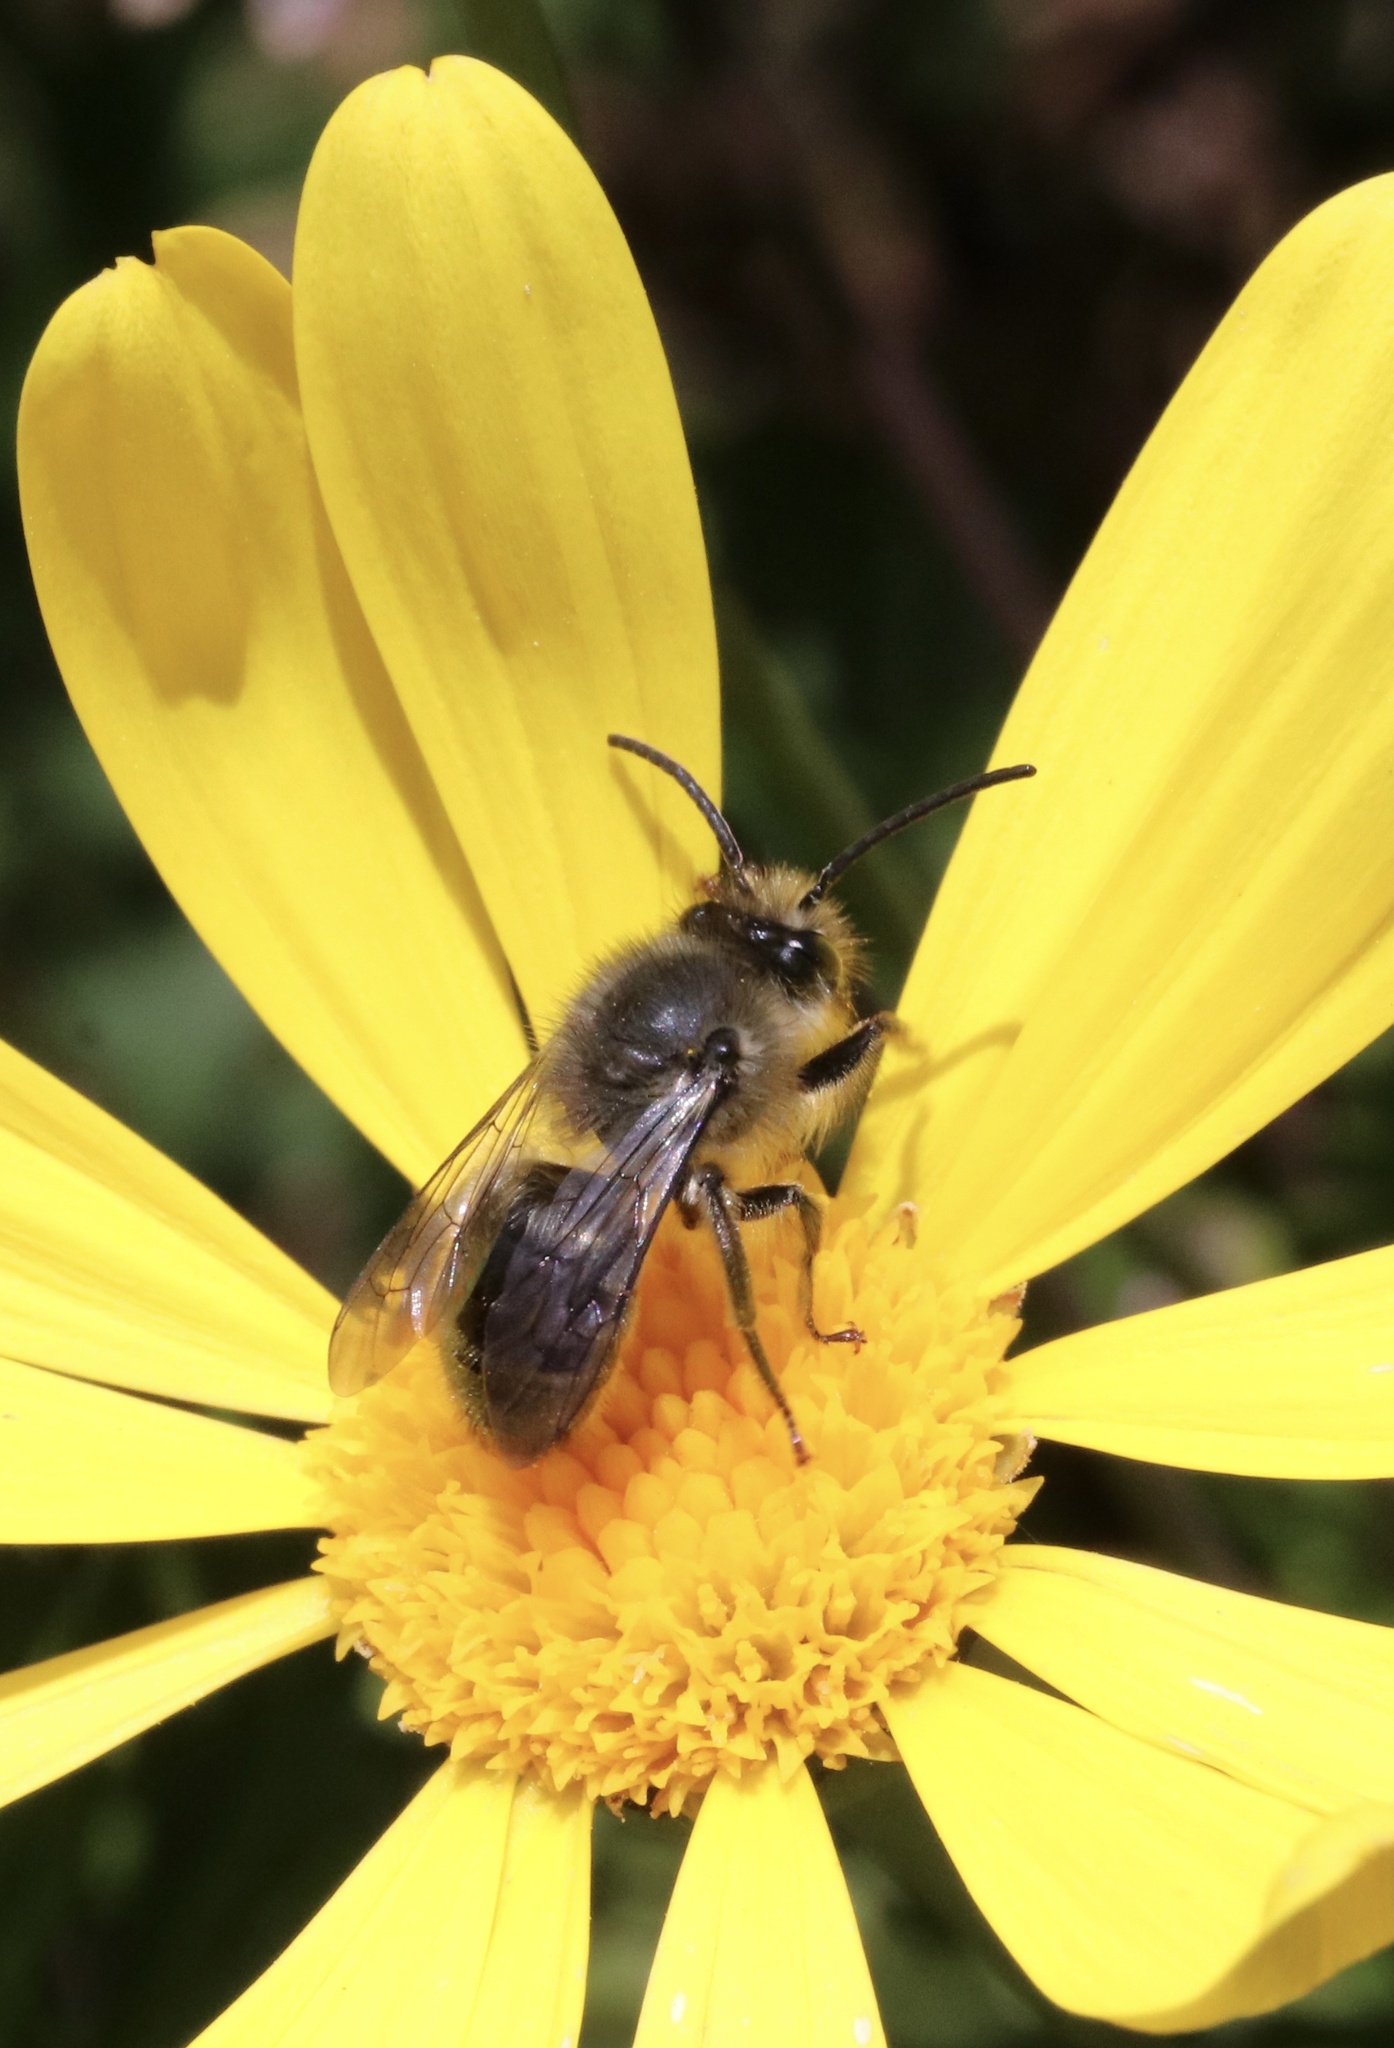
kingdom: Animalia
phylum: Arthropoda
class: Insecta
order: Hymenoptera
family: Colletidae
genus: Cadeguala
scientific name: Cadeguala albopilosa
